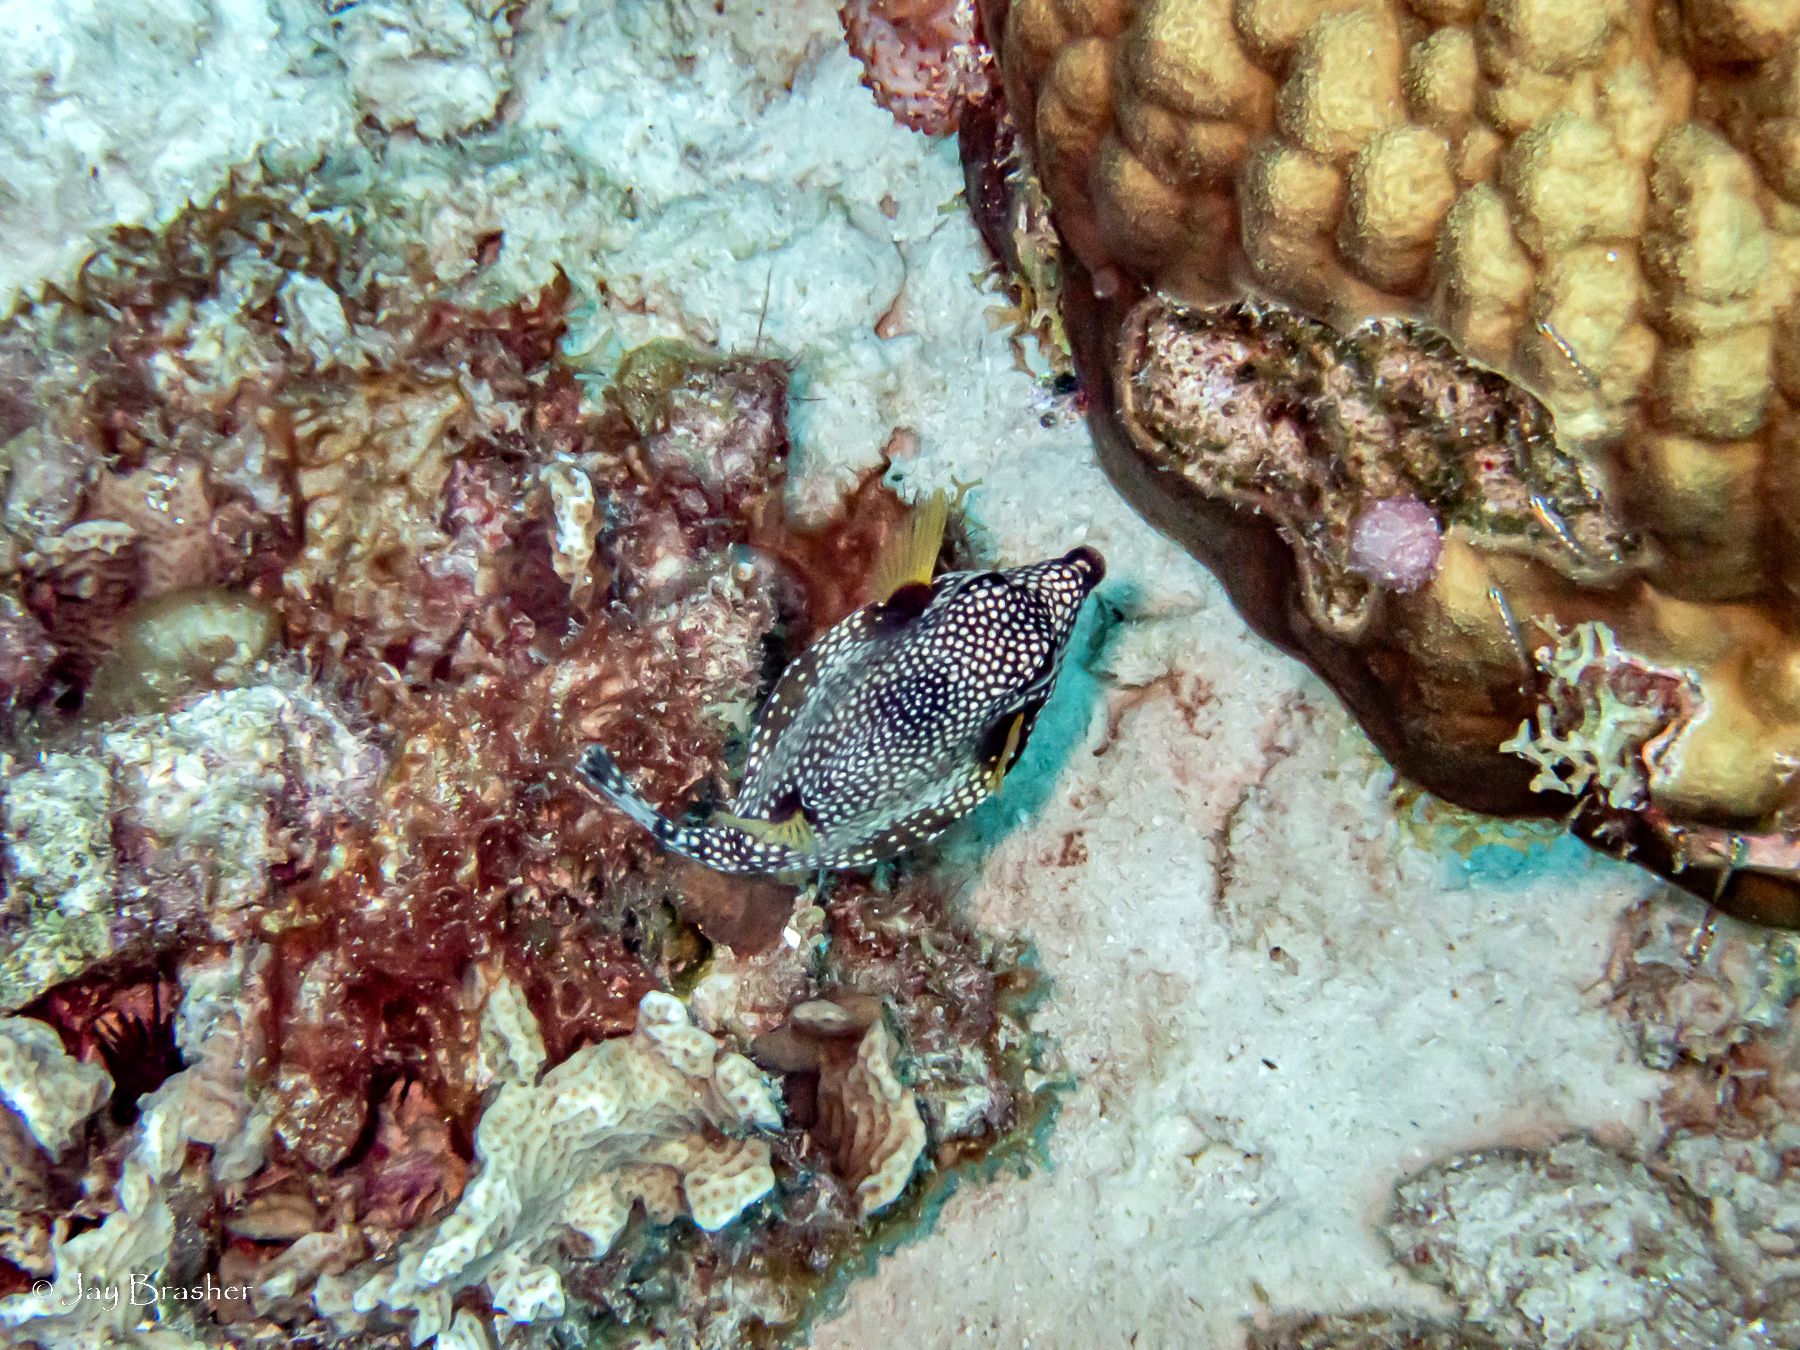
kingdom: Animalia
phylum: Cnidaria
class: Anthozoa
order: Scleractinia
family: Poritidae
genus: Porites
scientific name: Porites astreoides
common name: Mustard hill coral
